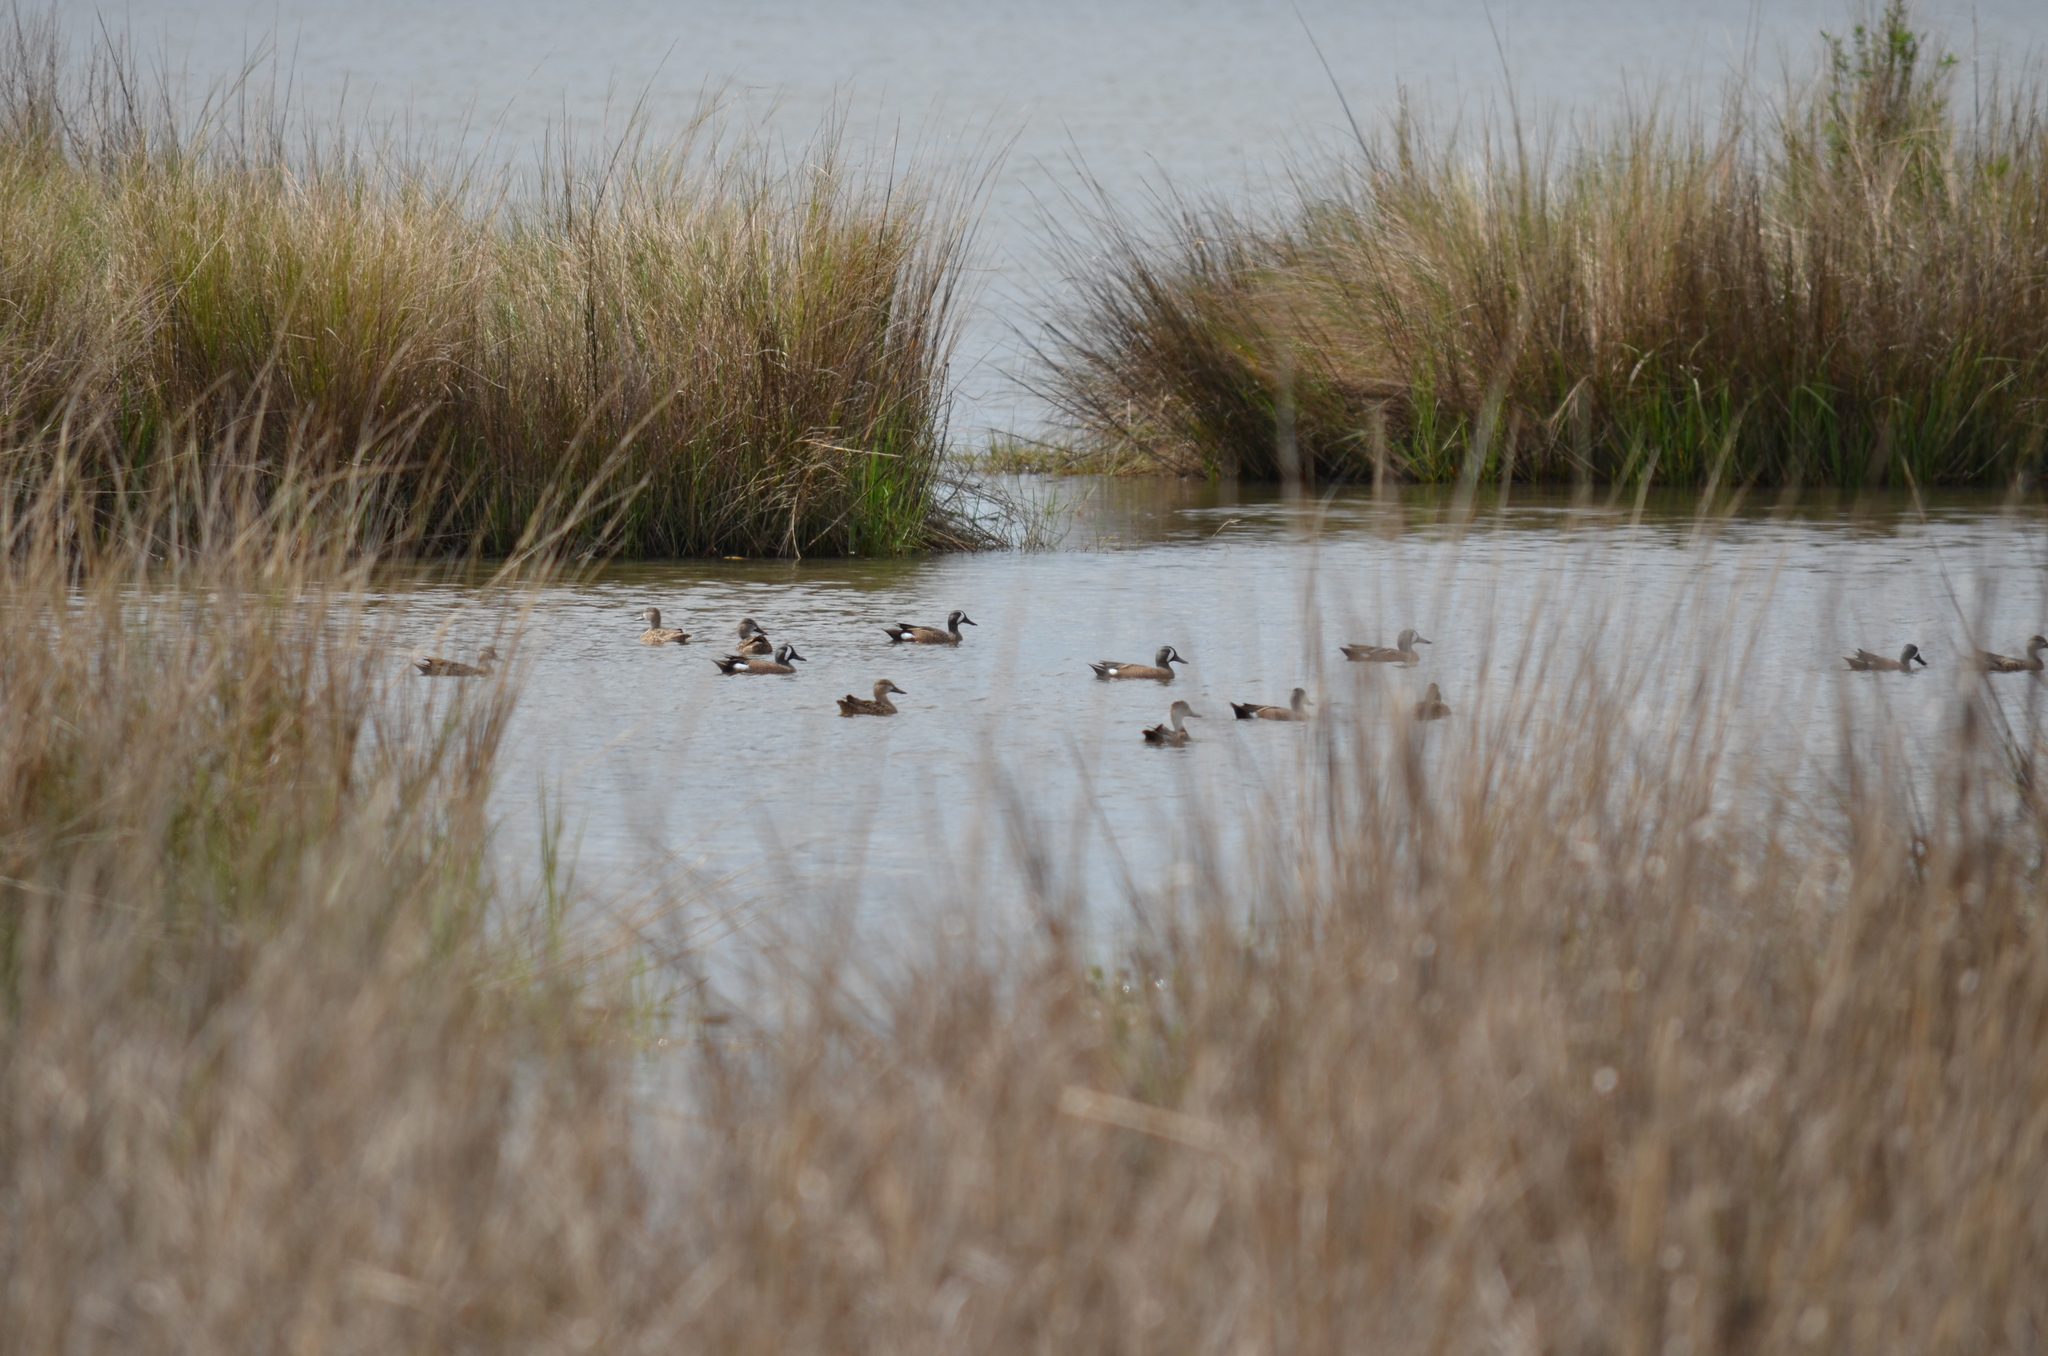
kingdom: Animalia
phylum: Chordata
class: Aves
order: Anseriformes
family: Anatidae
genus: Spatula
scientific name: Spatula discors
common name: Blue-winged teal
